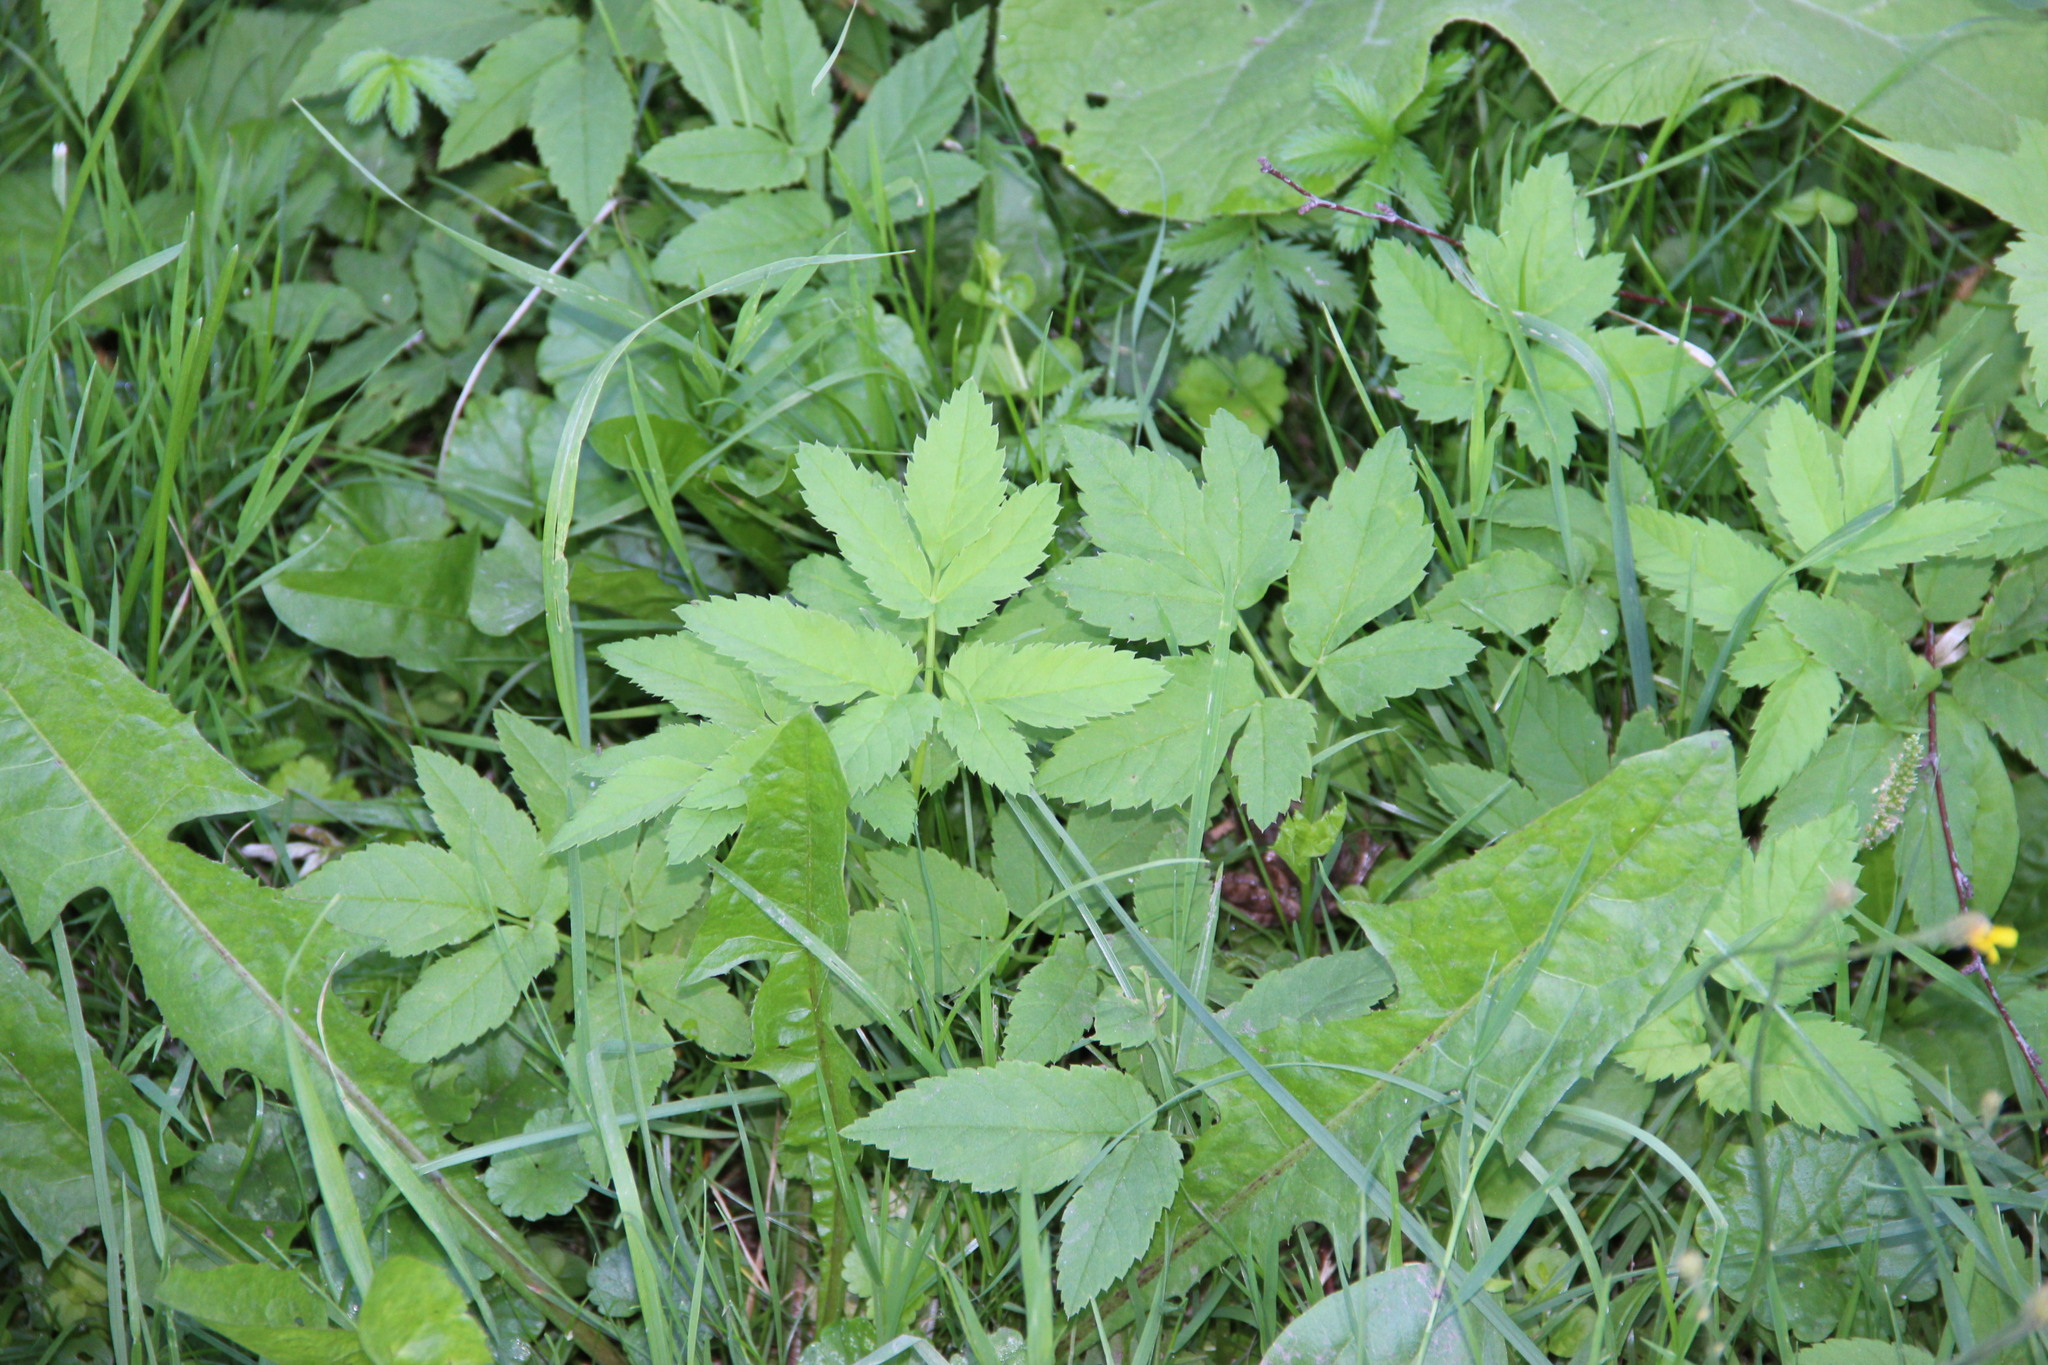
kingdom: Plantae
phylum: Tracheophyta
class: Magnoliopsida
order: Apiales
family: Apiaceae
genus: Aegopodium
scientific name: Aegopodium podagraria
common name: Ground-elder
